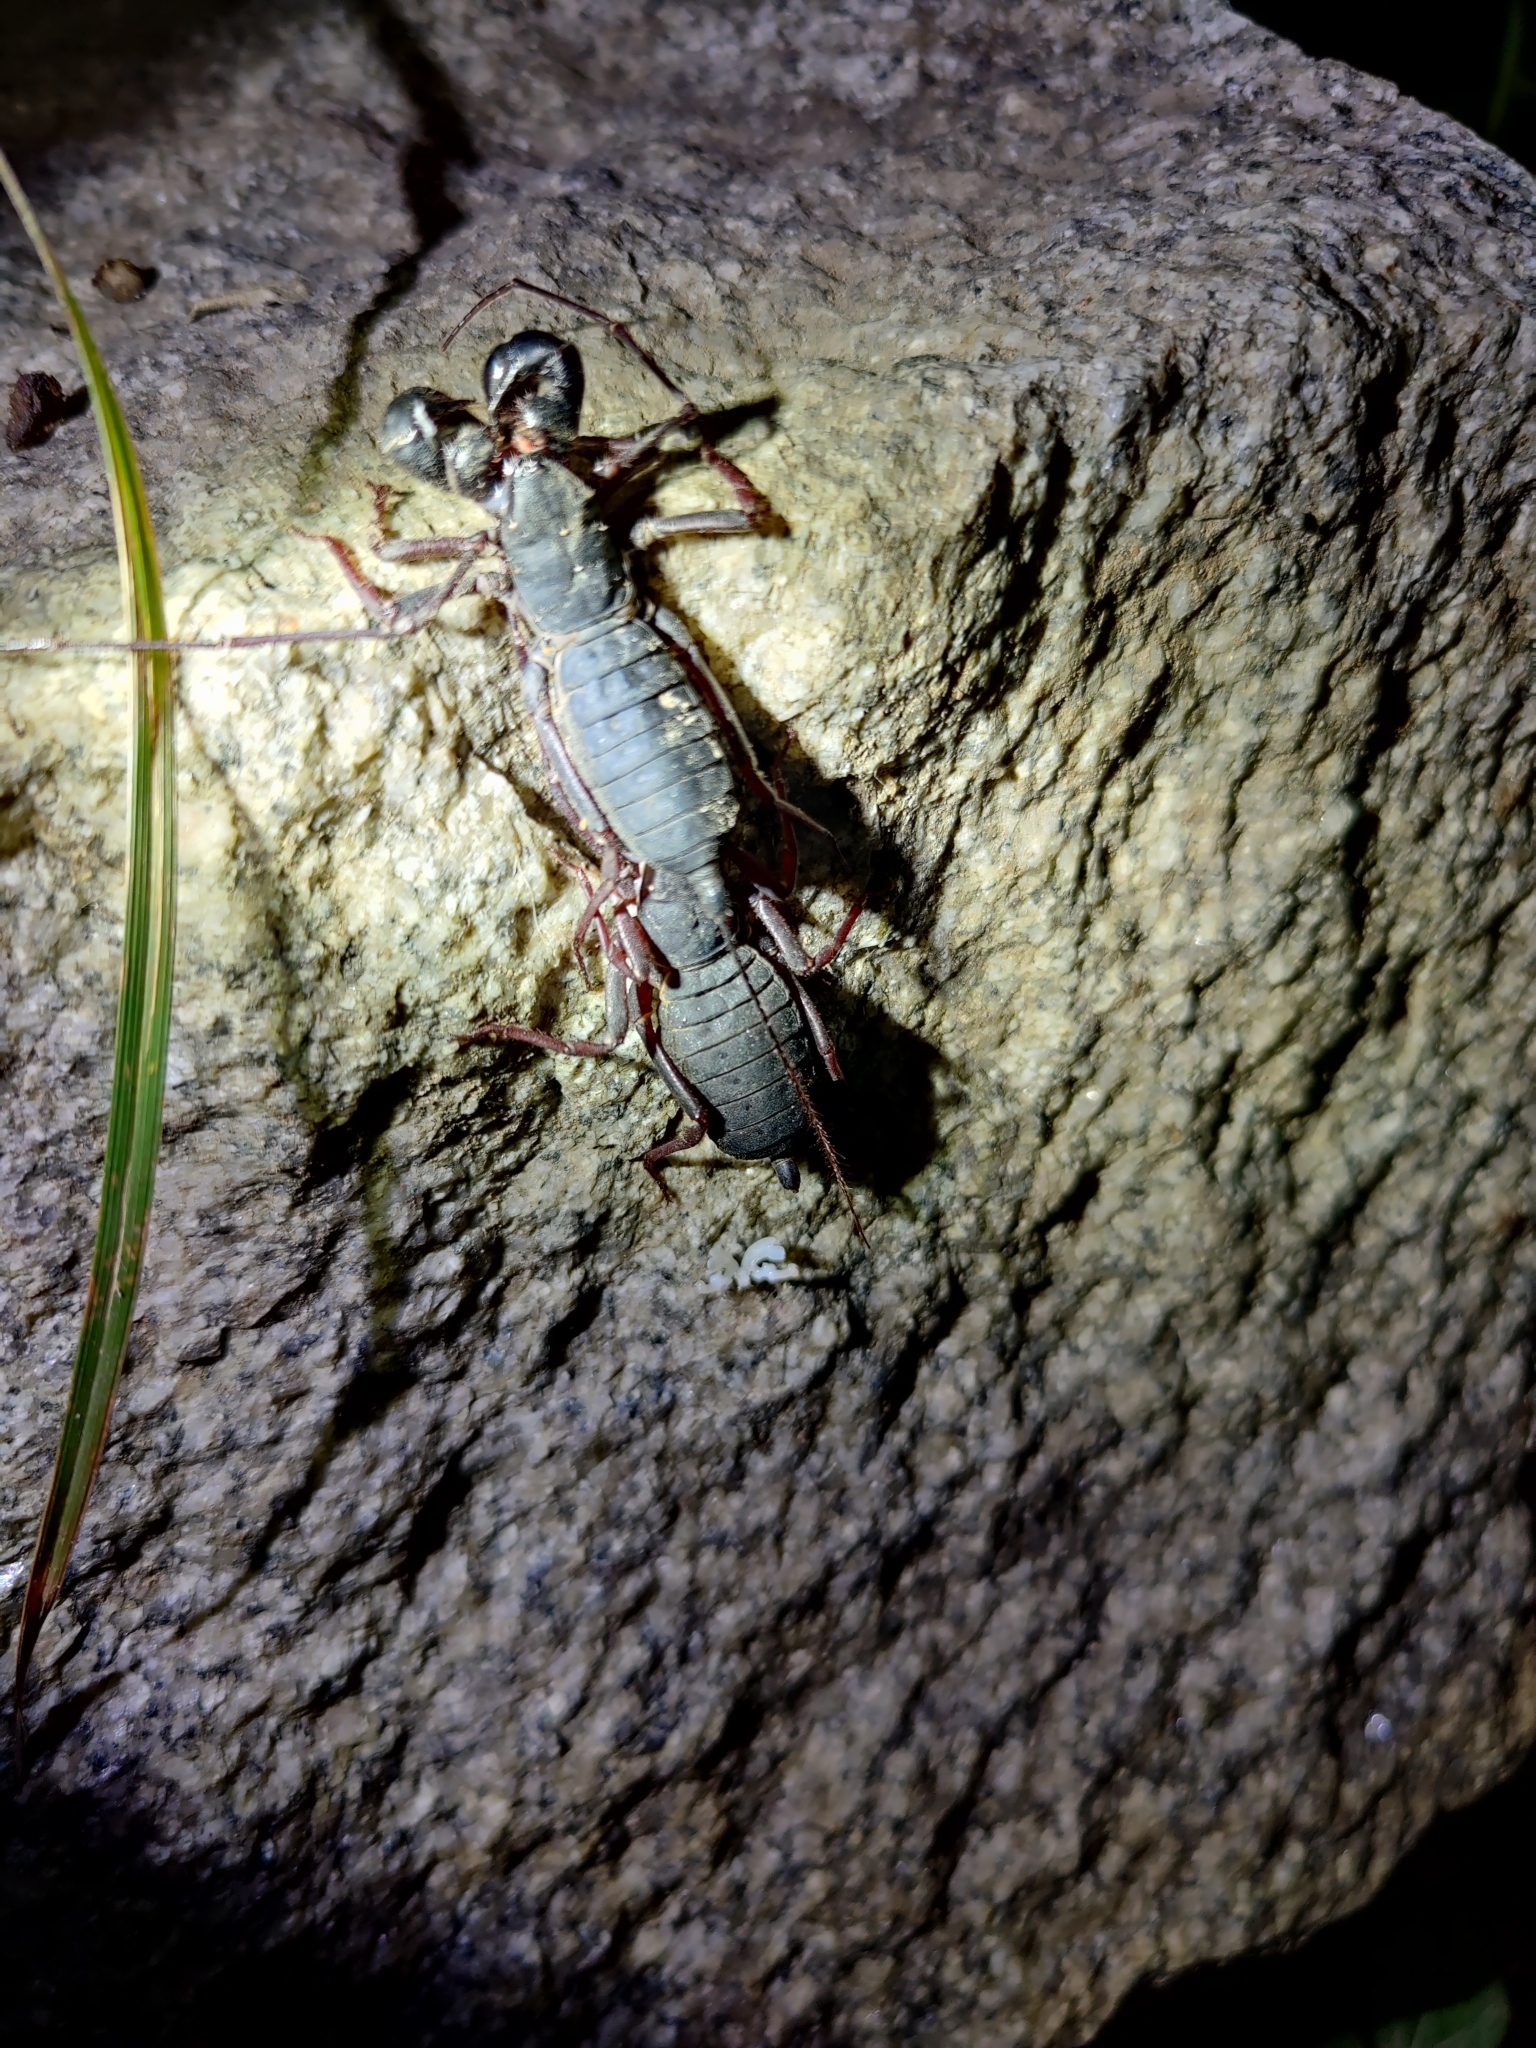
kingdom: Animalia
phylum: Arthropoda
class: Arachnida
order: Uropygi
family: Thelyphonidae
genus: Thelyphonus
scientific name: Thelyphonus sepiaris
